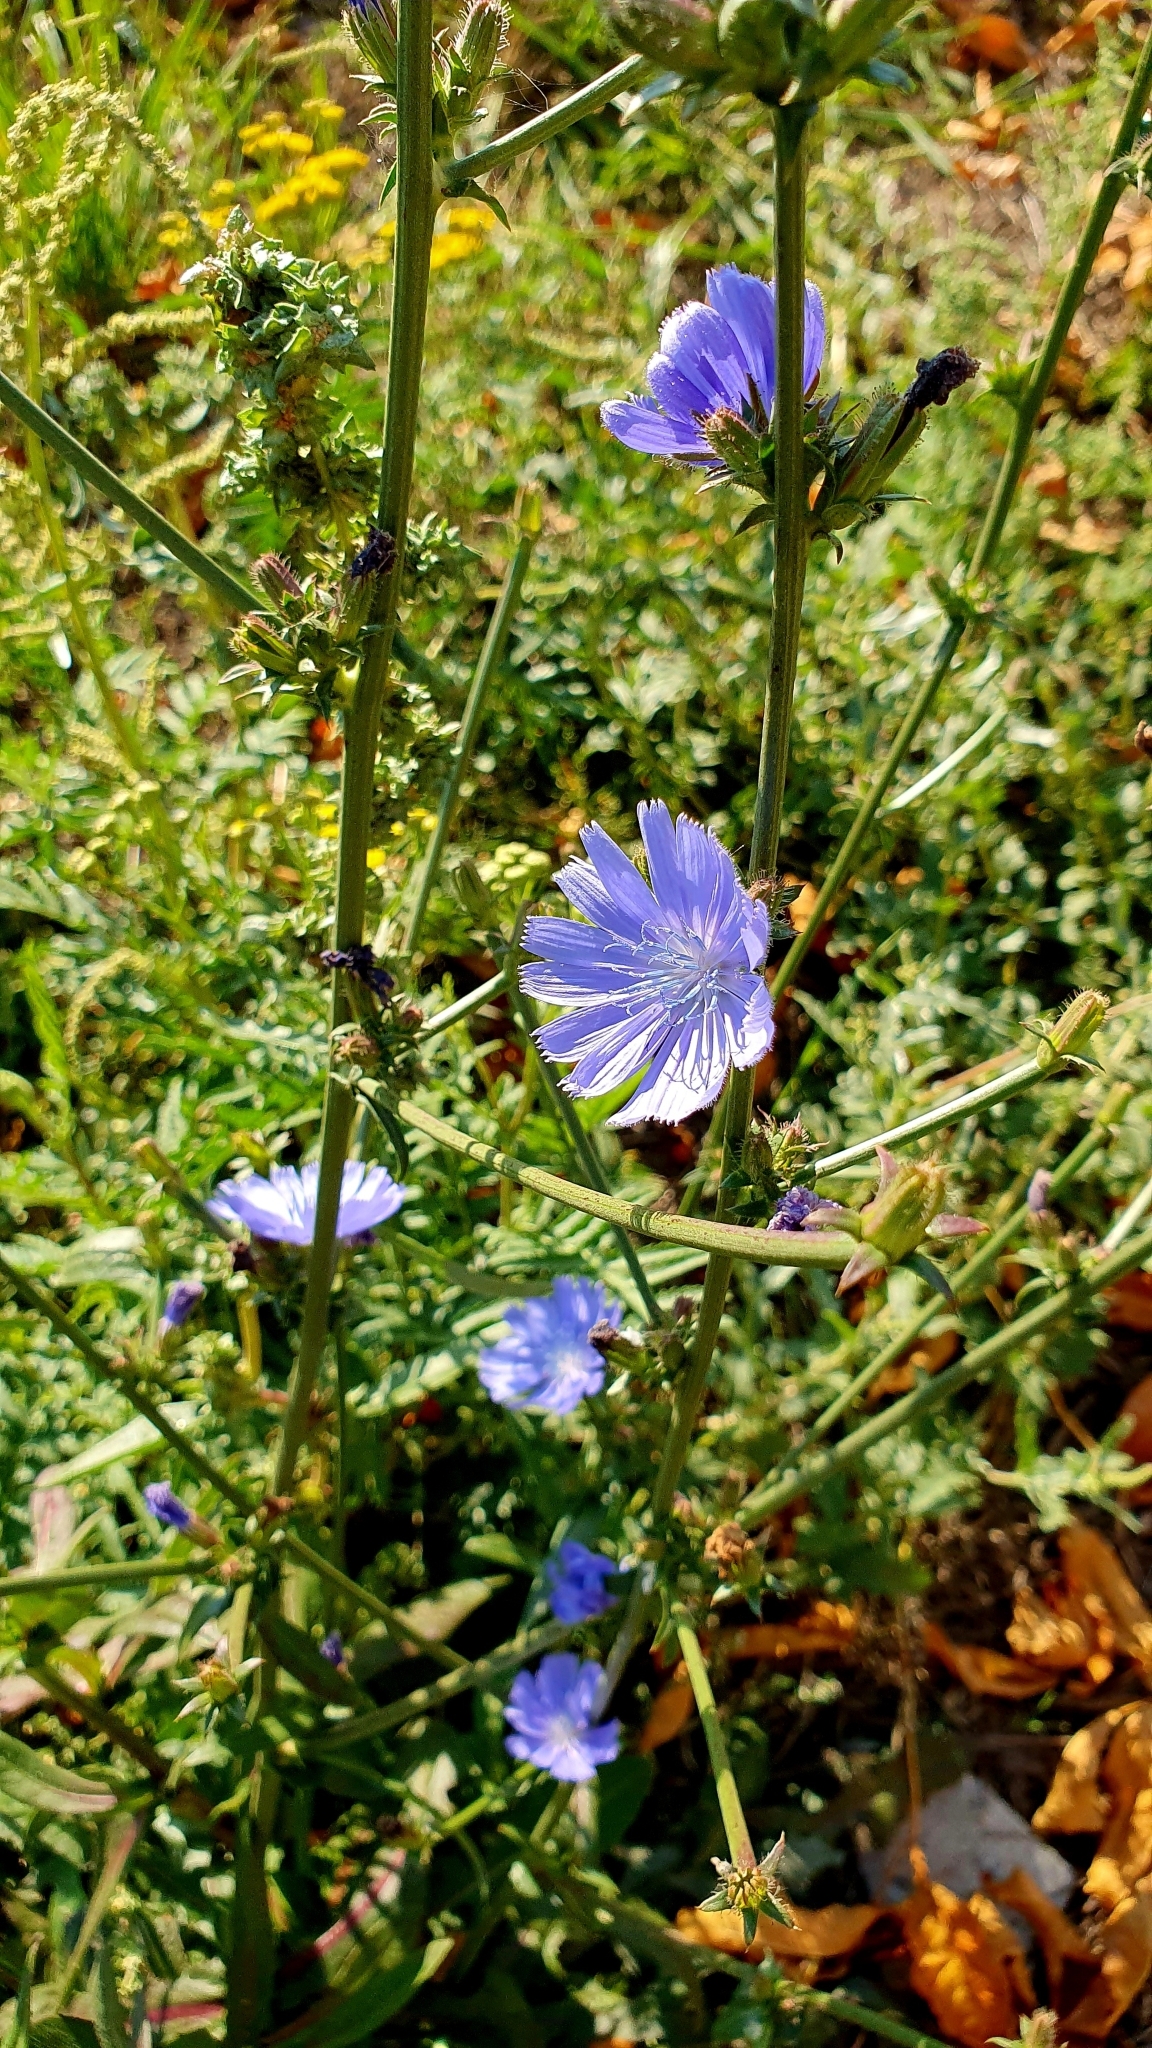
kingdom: Plantae
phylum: Tracheophyta
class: Magnoliopsida
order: Asterales
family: Asteraceae
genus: Cichorium
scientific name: Cichorium intybus
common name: Chicory
